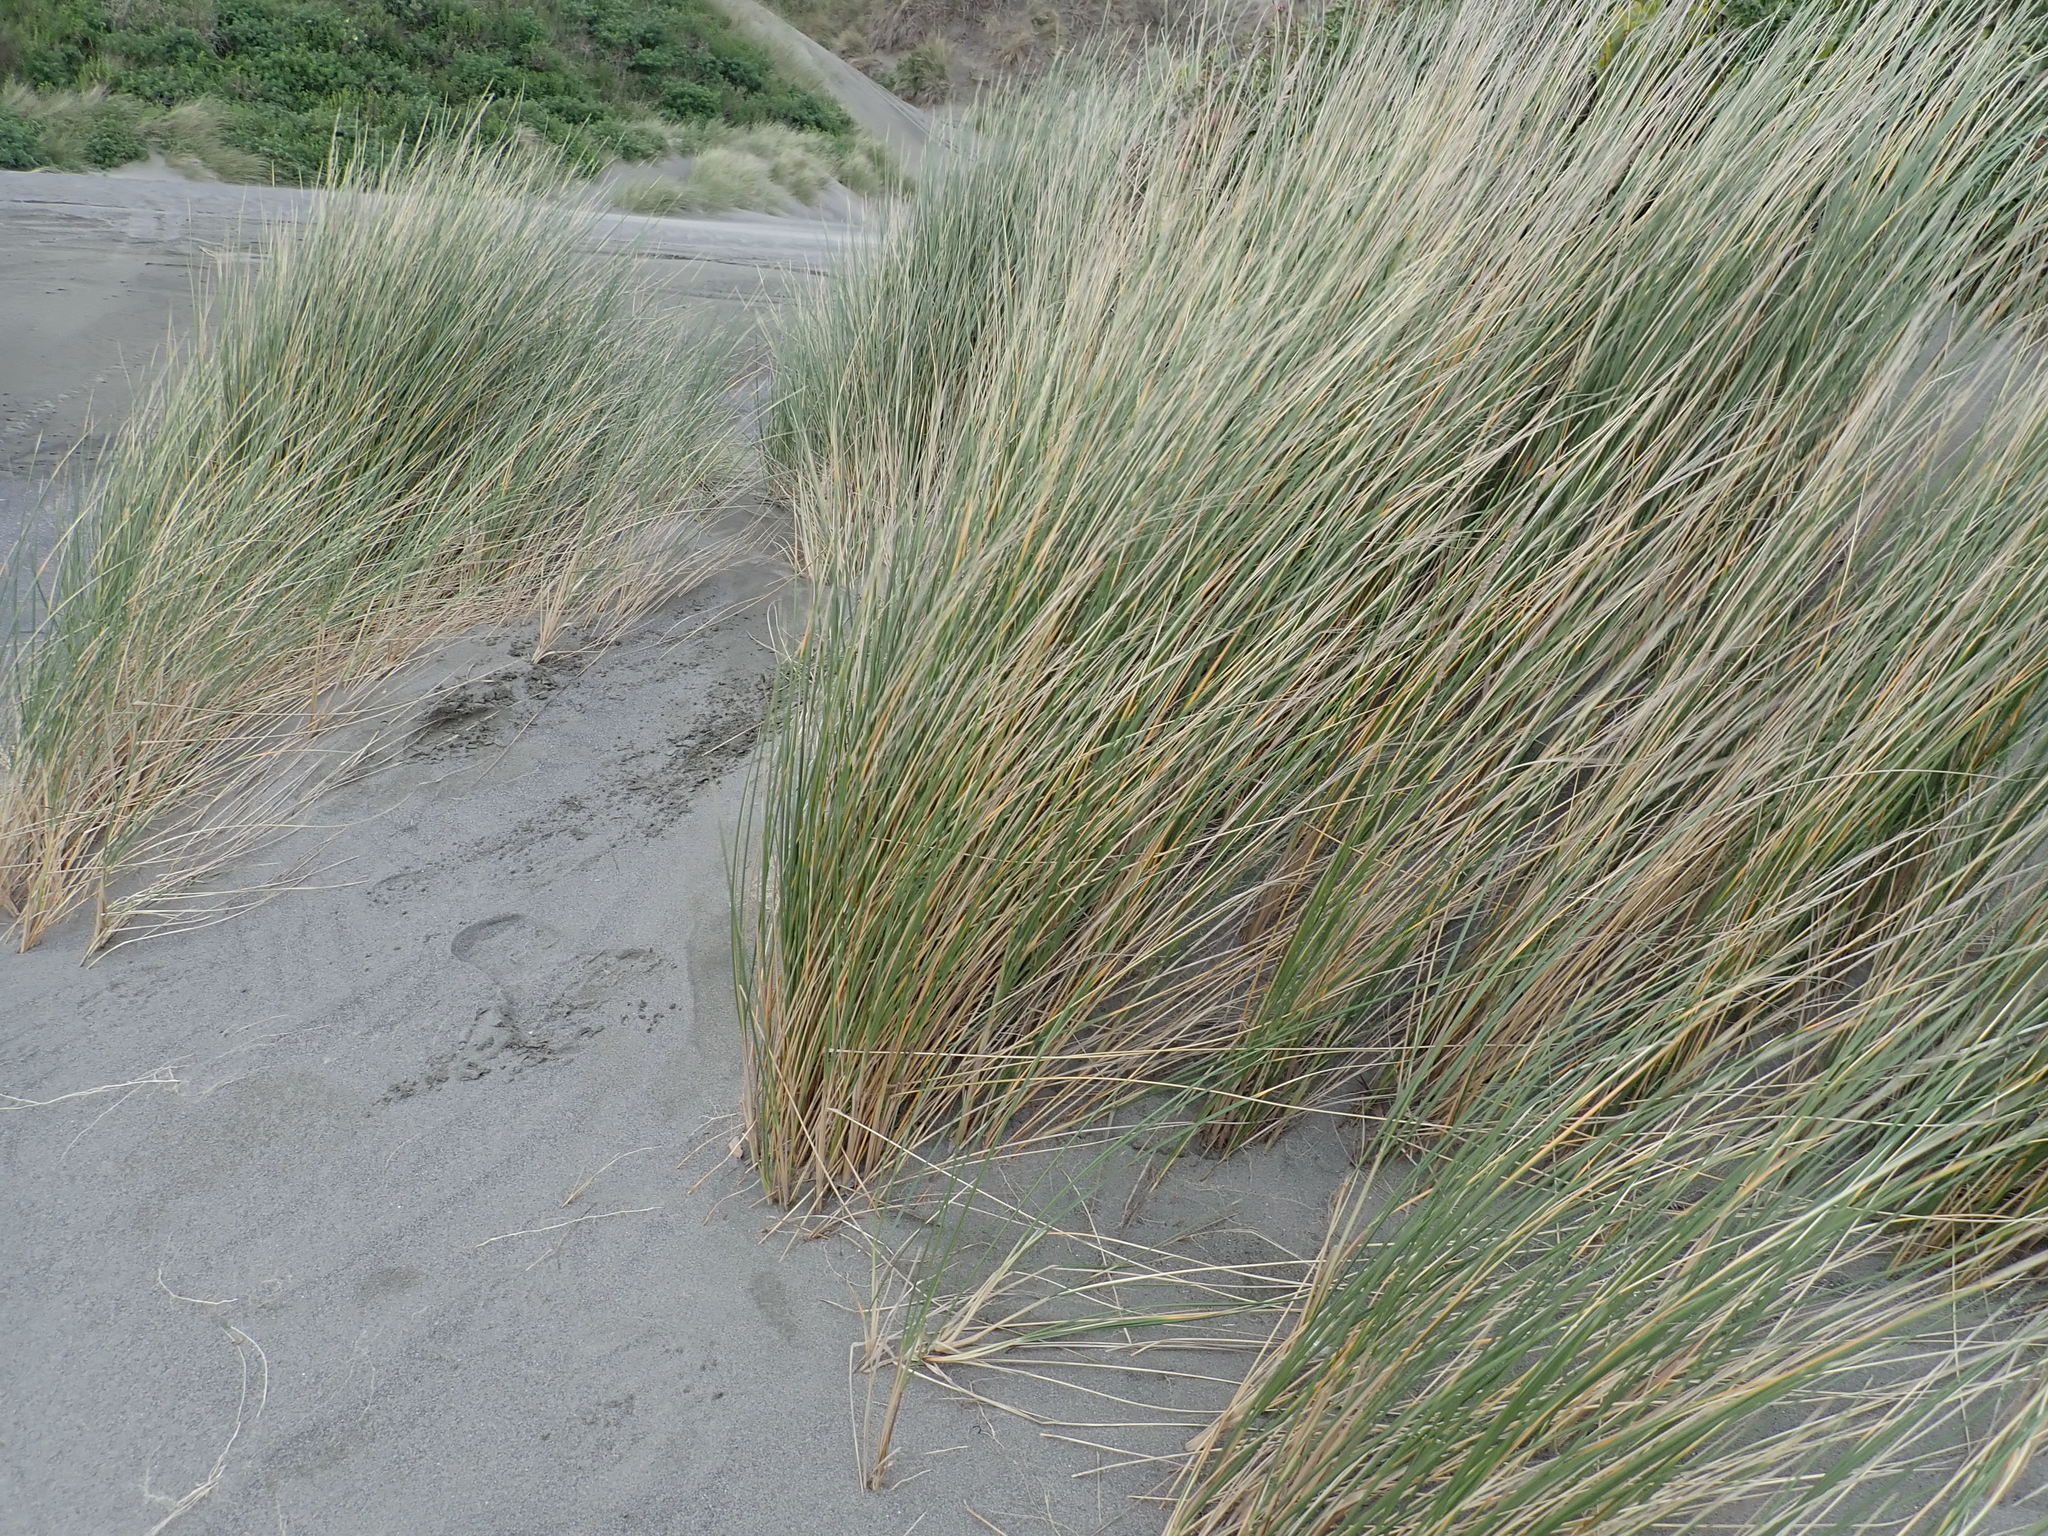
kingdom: Plantae
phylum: Tracheophyta
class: Liliopsida
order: Poales
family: Poaceae
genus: Calamagrostis
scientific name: Calamagrostis arenaria
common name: European beachgrass
